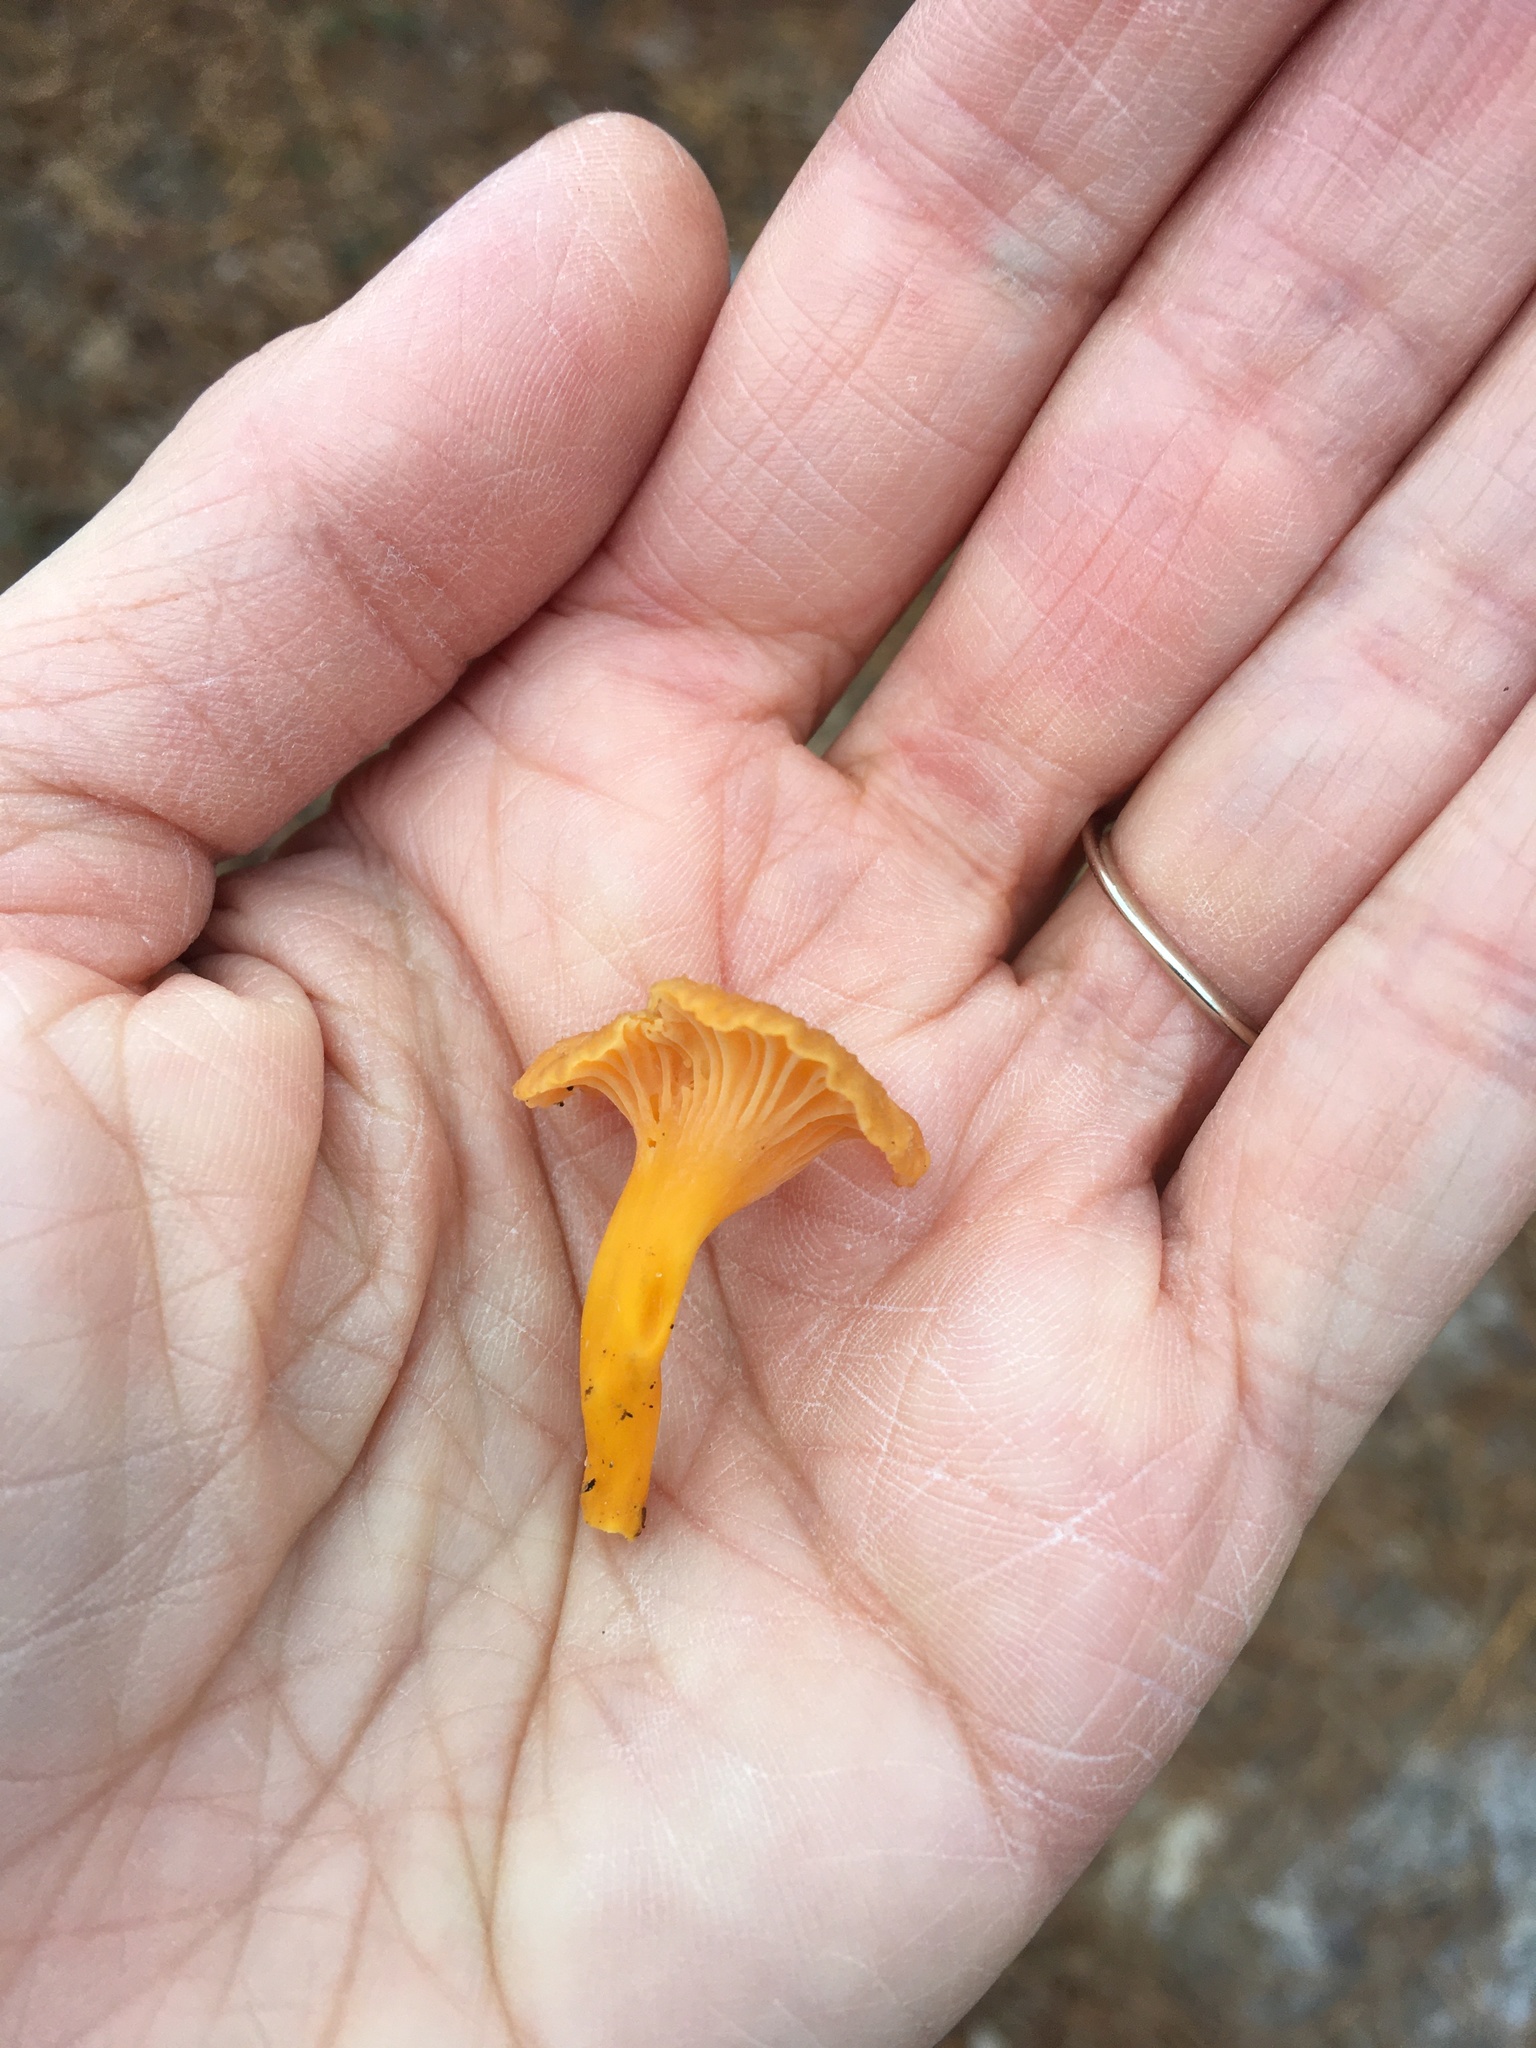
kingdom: Fungi
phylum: Basidiomycota
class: Agaricomycetes
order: Cantharellales
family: Hydnaceae
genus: Craterellus
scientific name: Craterellus ignicolor
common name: Flame chanterelle
